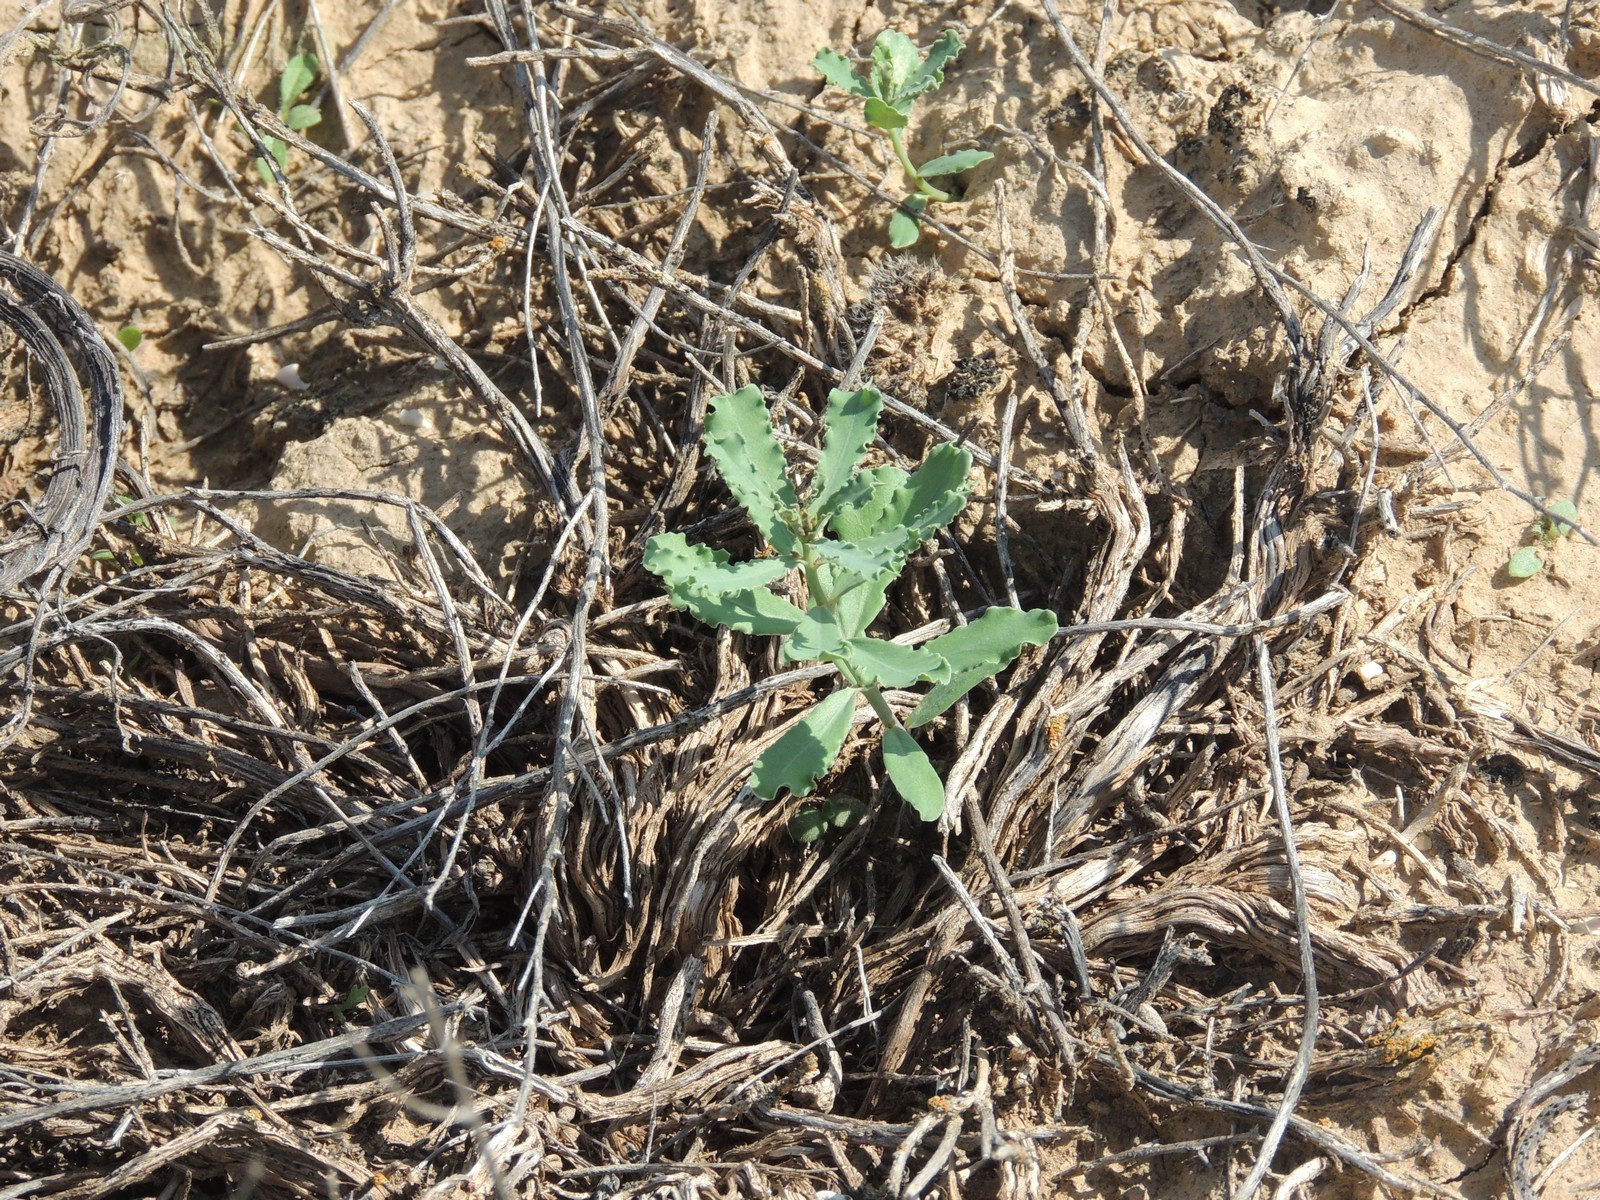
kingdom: Plantae
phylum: Tracheophyta
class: Magnoliopsida
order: Malpighiales
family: Euphorbiaceae
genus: Euphorbia
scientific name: Euphorbia undulata
